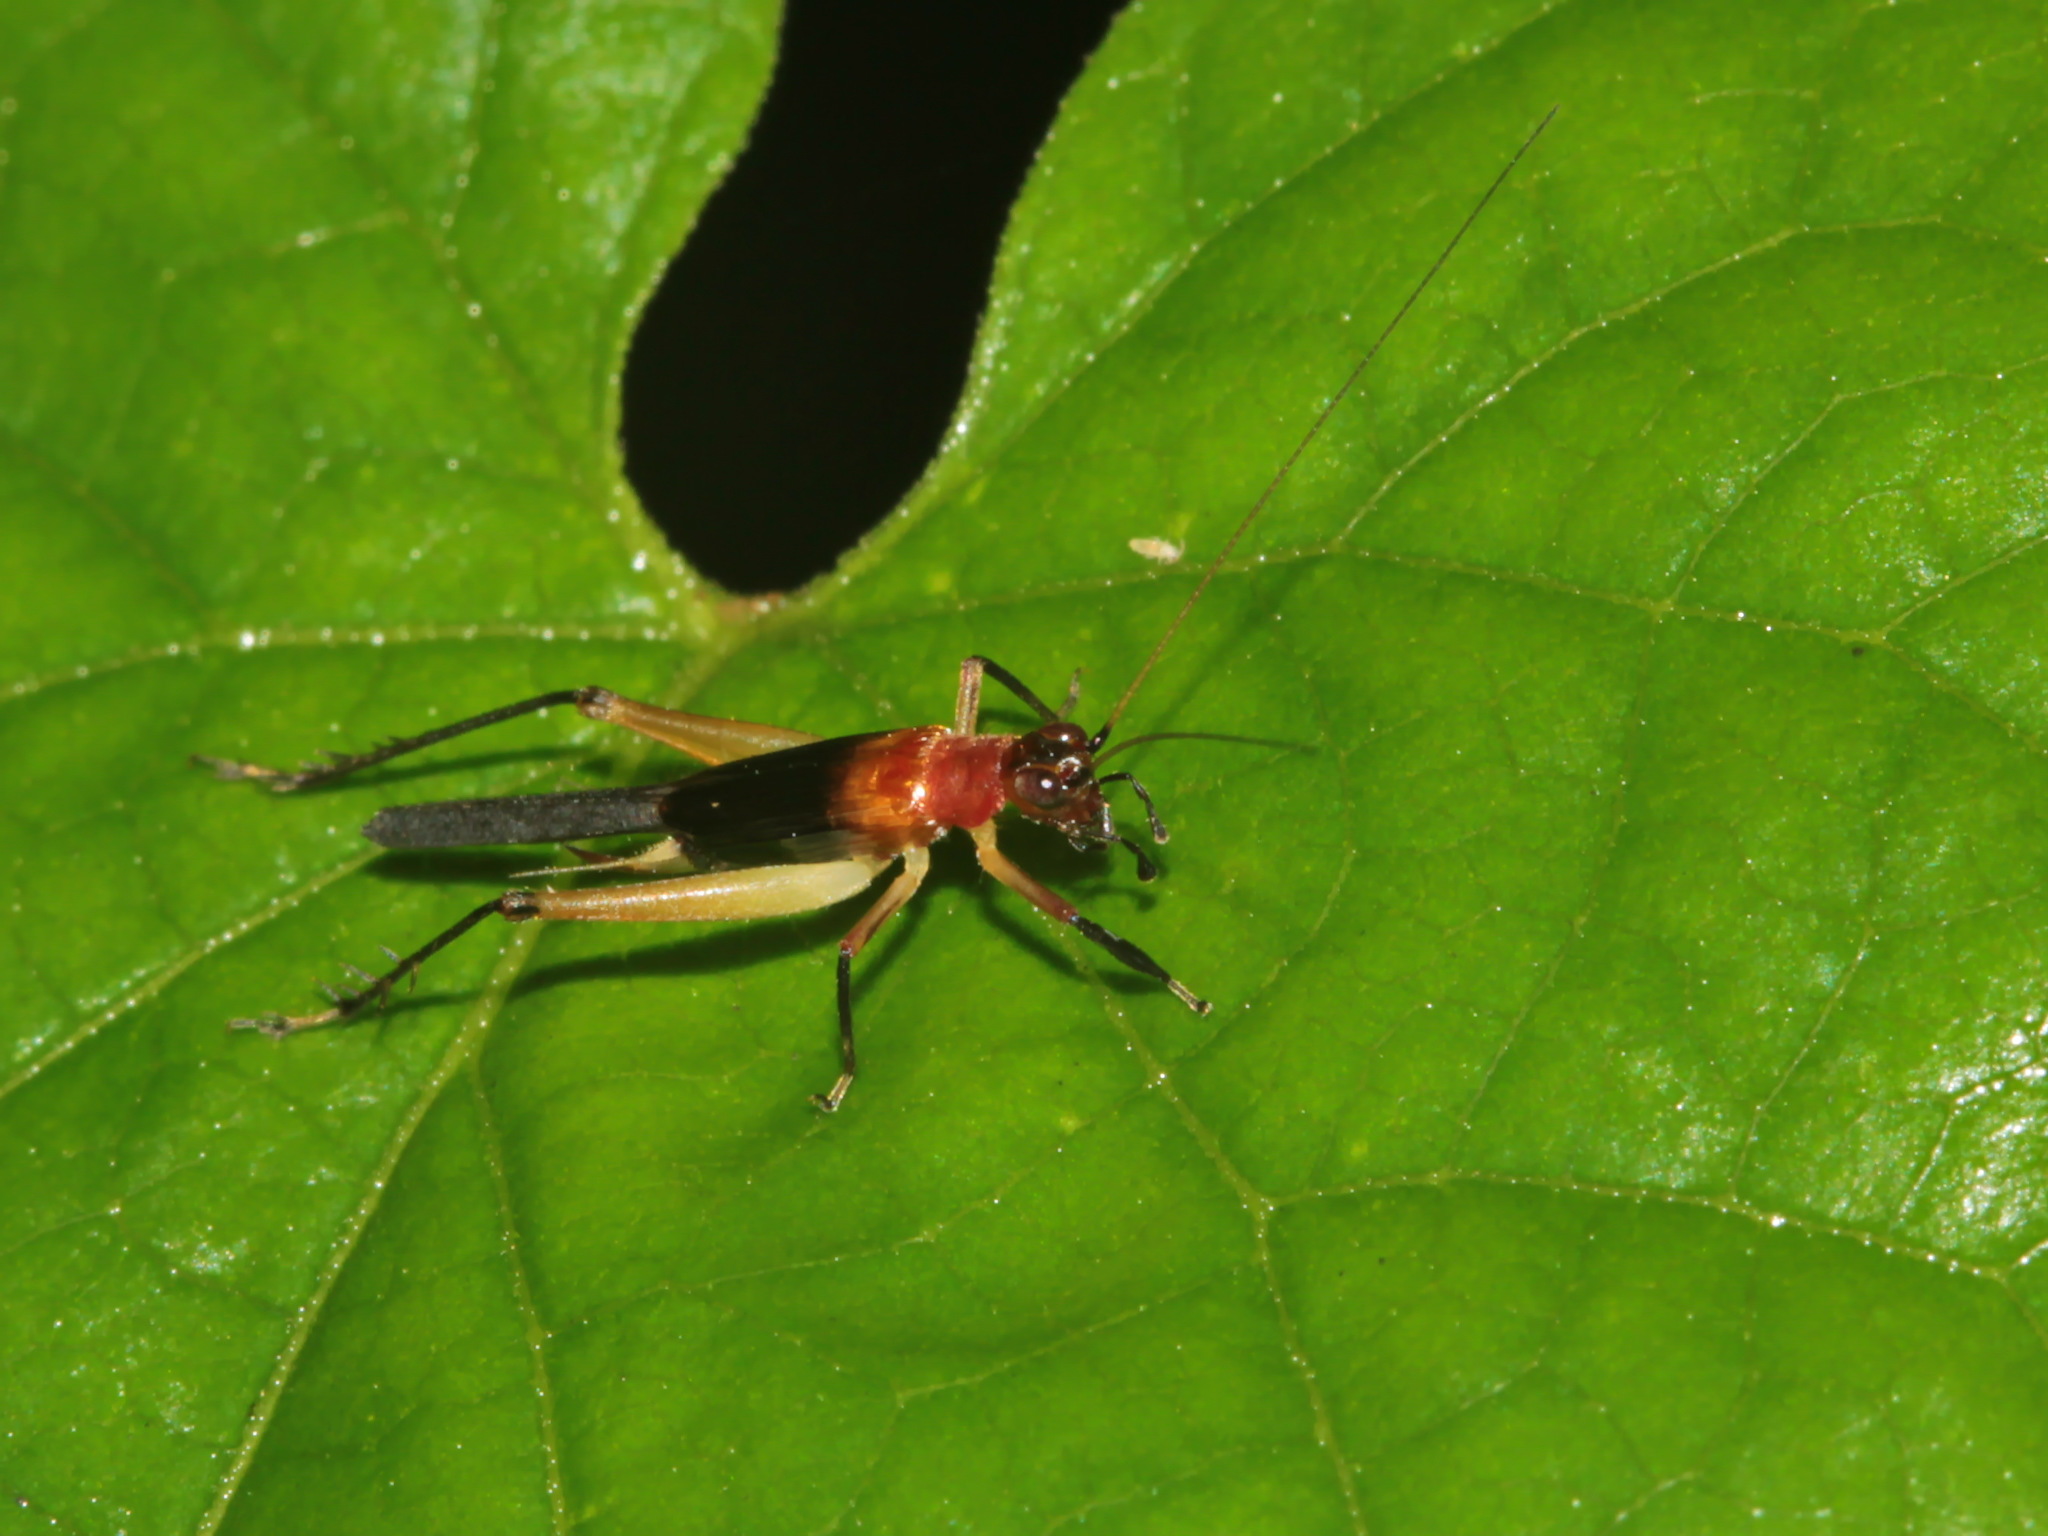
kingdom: Animalia
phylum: Arthropoda
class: Insecta
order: Orthoptera
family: Trigonidiidae
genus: Homoeoxipha
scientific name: Homoeoxipha lycoides
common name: Tinkling leaf-runner
